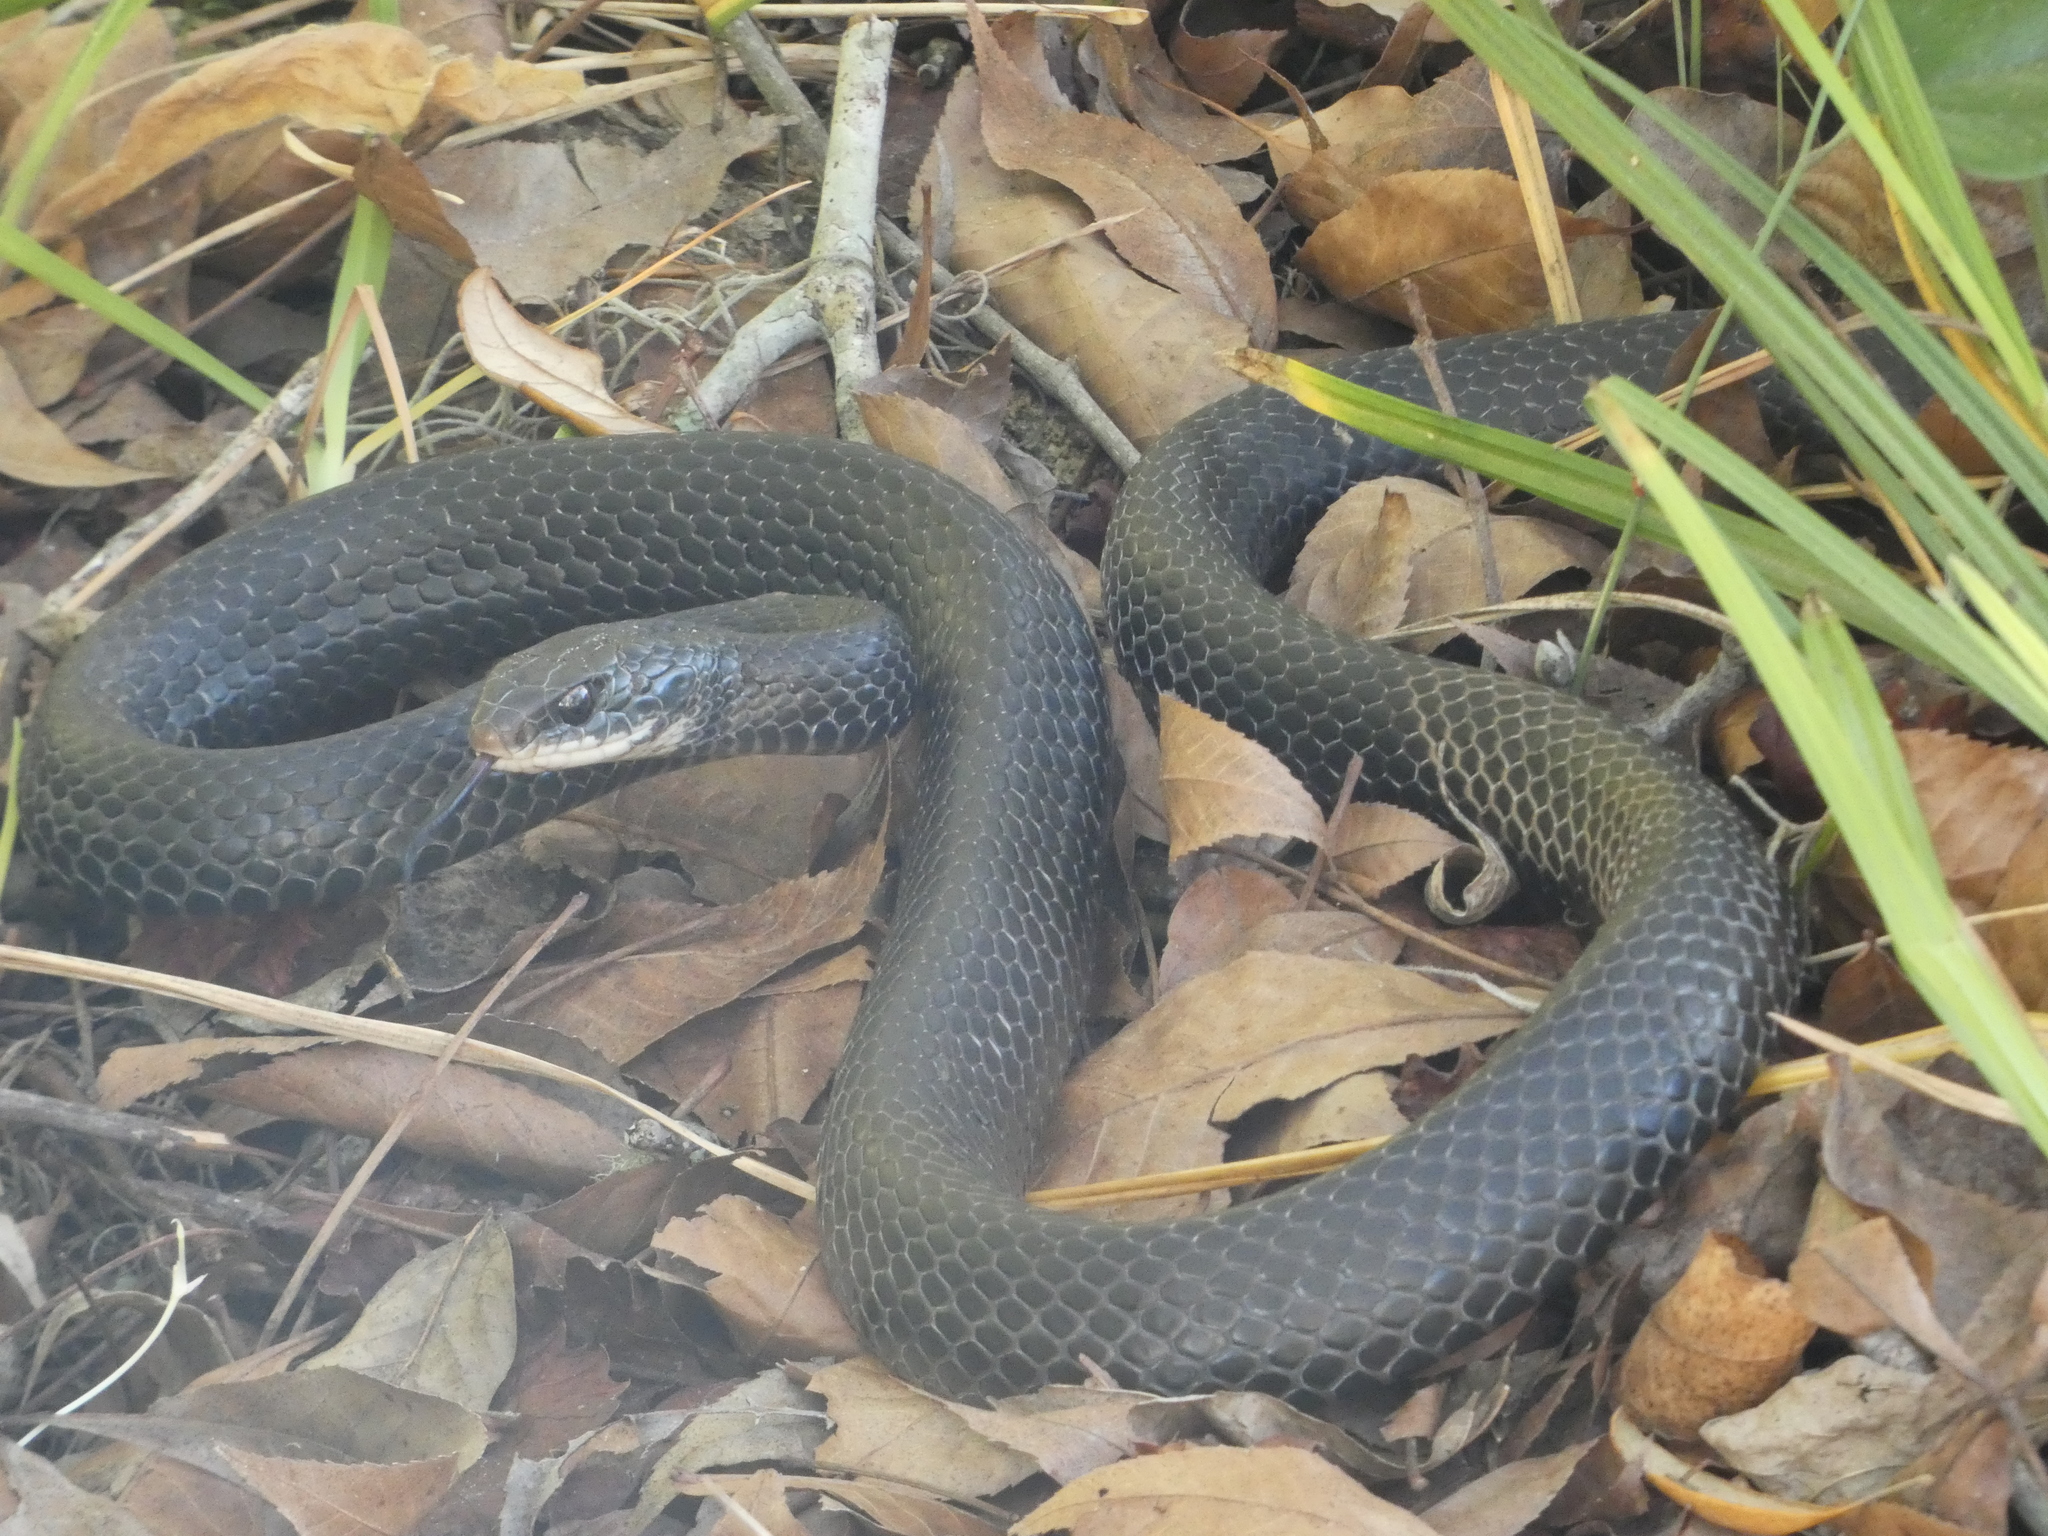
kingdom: Animalia
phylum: Chordata
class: Squamata
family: Colubridae
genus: Coluber
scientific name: Coluber constrictor
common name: Eastern racer
